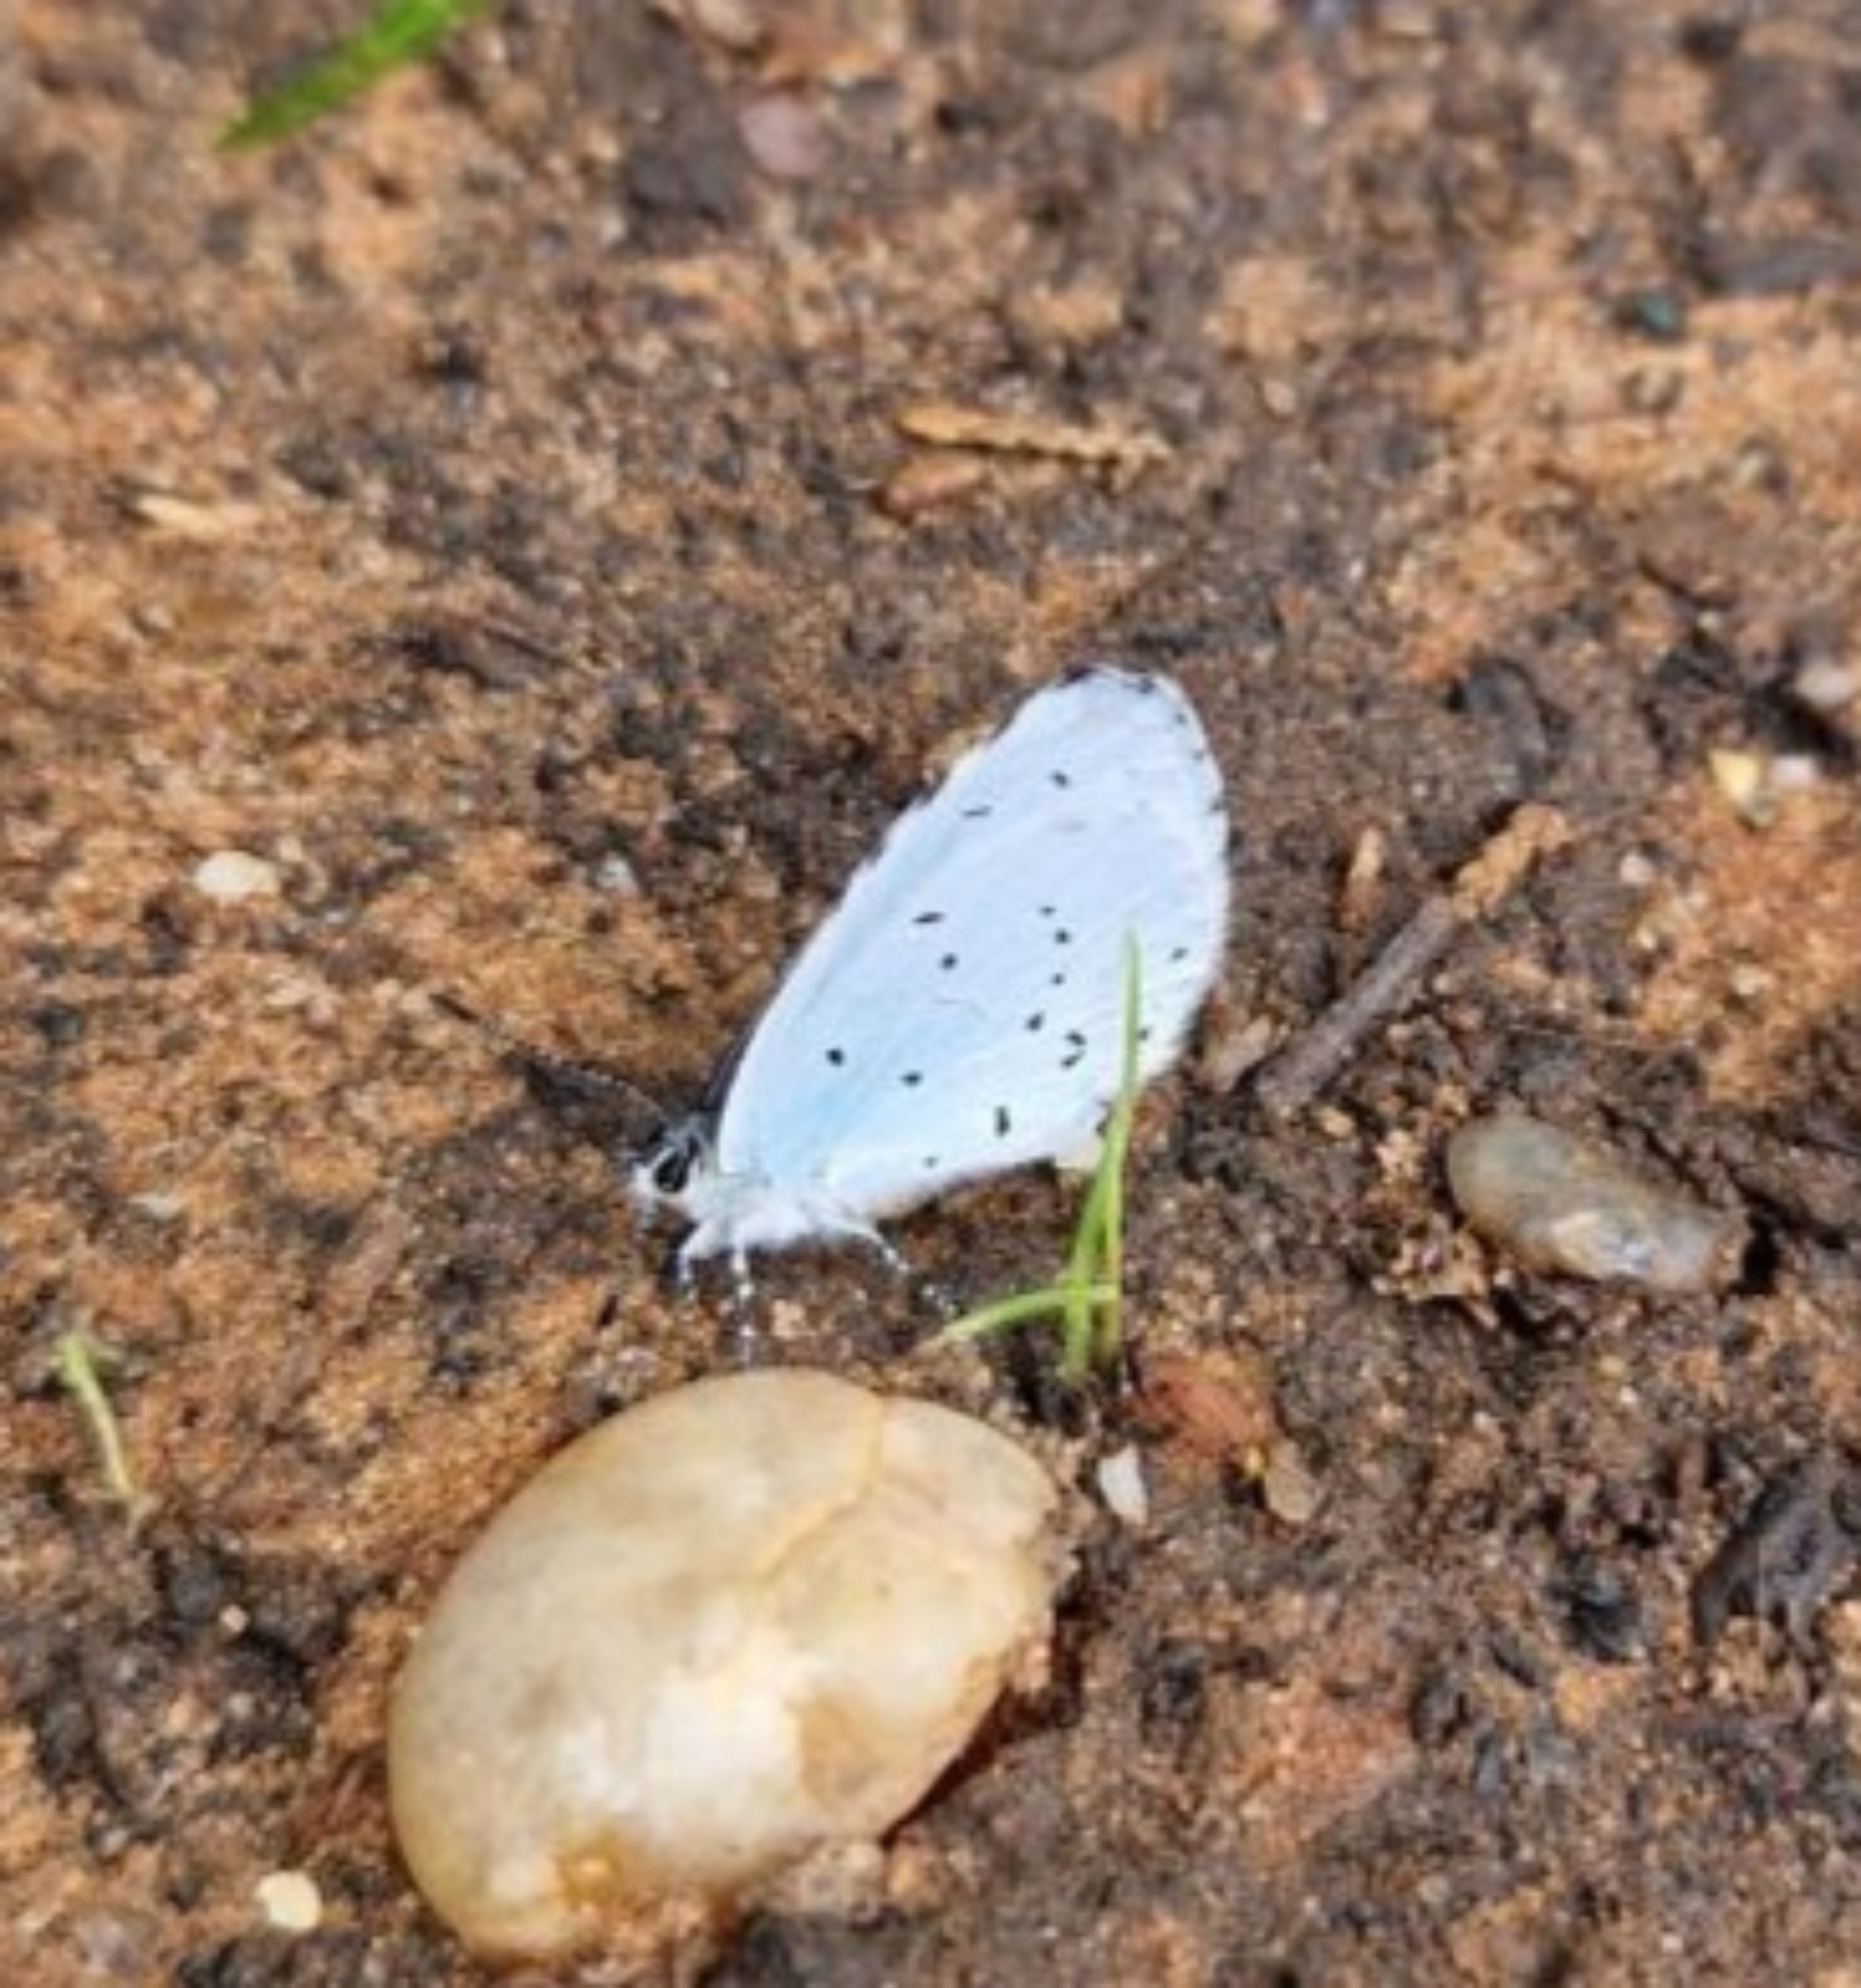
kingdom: Animalia
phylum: Arthropoda
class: Insecta
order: Lepidoptera
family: Lycaenidae
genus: Celastrina
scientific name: Celastrina argiolus
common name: Holly blue
